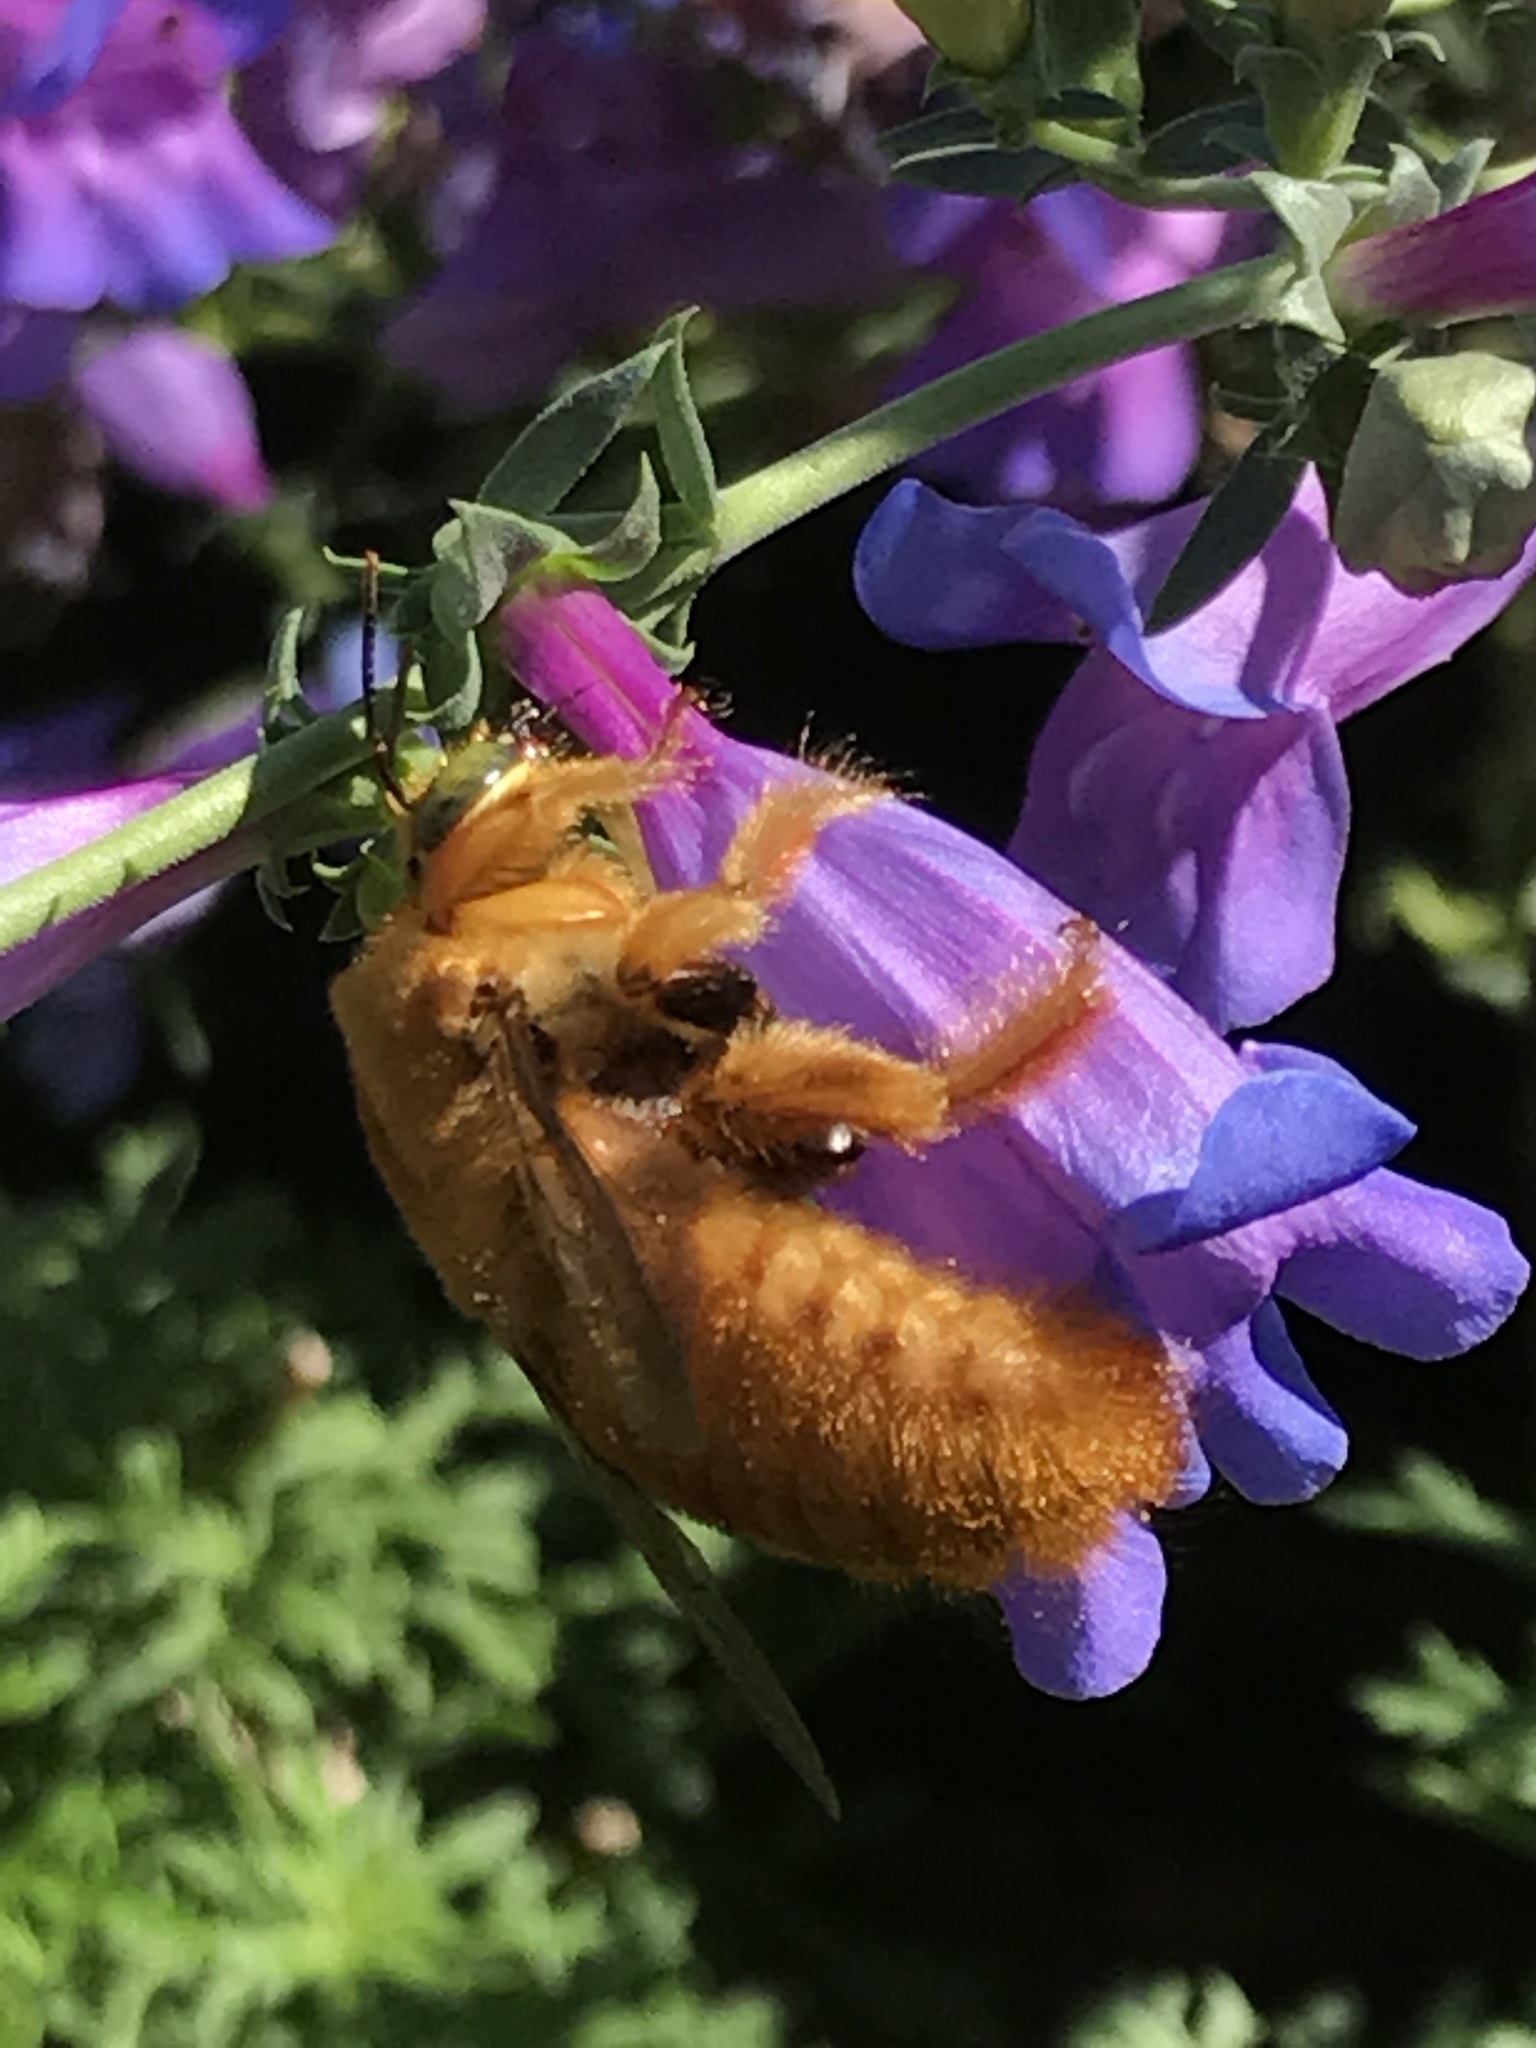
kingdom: Animalia
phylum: Arthropoda
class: Insecta
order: Hymenoptera
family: Apidae
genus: Xylocopa
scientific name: Xylocopa sonorina
